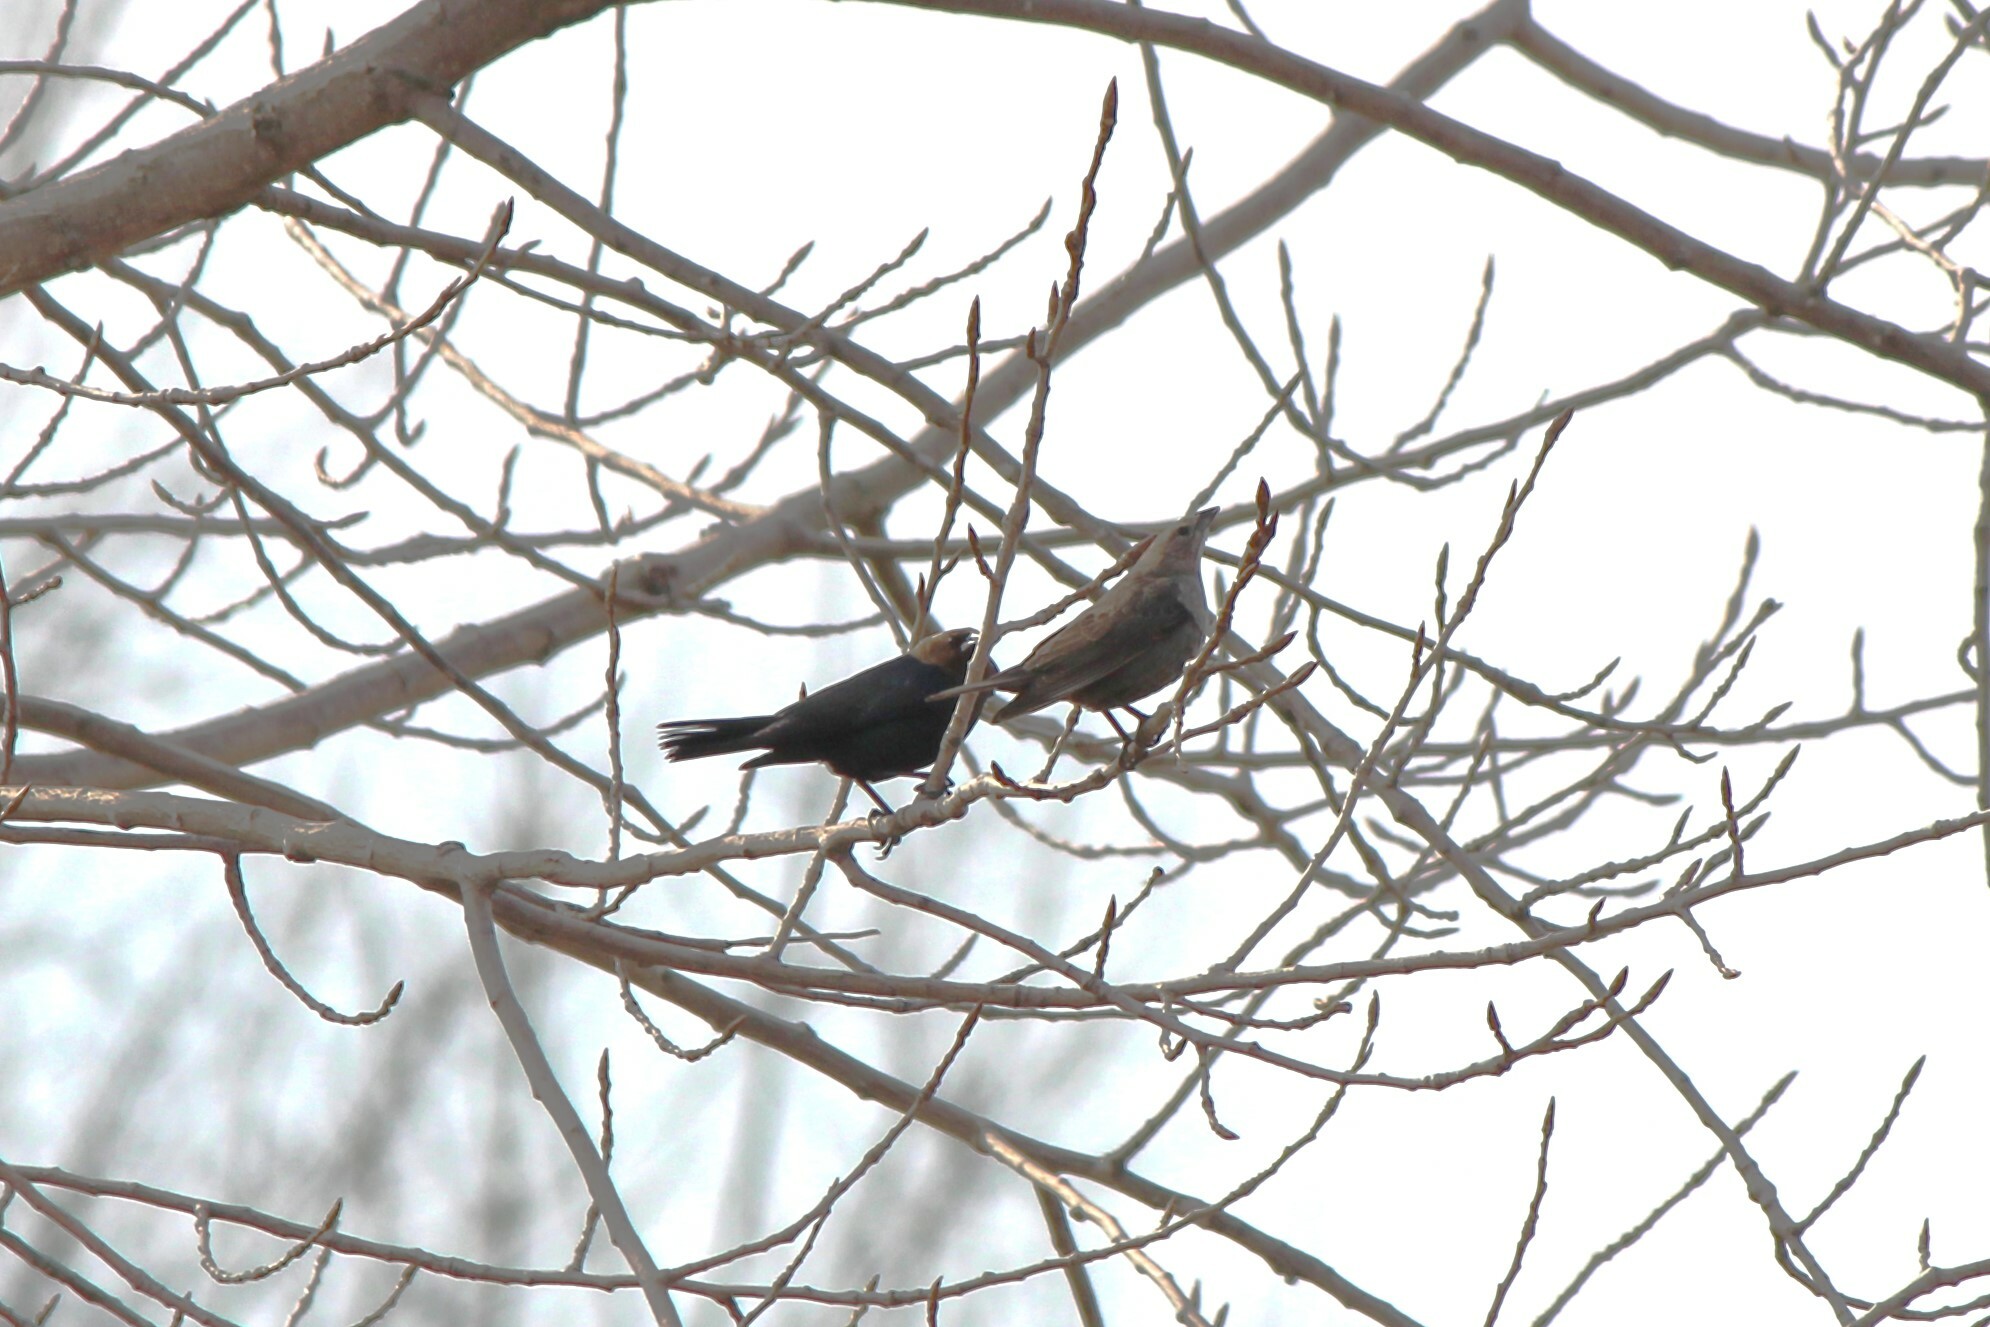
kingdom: Animalia
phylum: Chordata
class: Aves
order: Passeriformes
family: Icteridae
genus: Molothrus
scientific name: Molothrus ater
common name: Brown-headed cowbird
